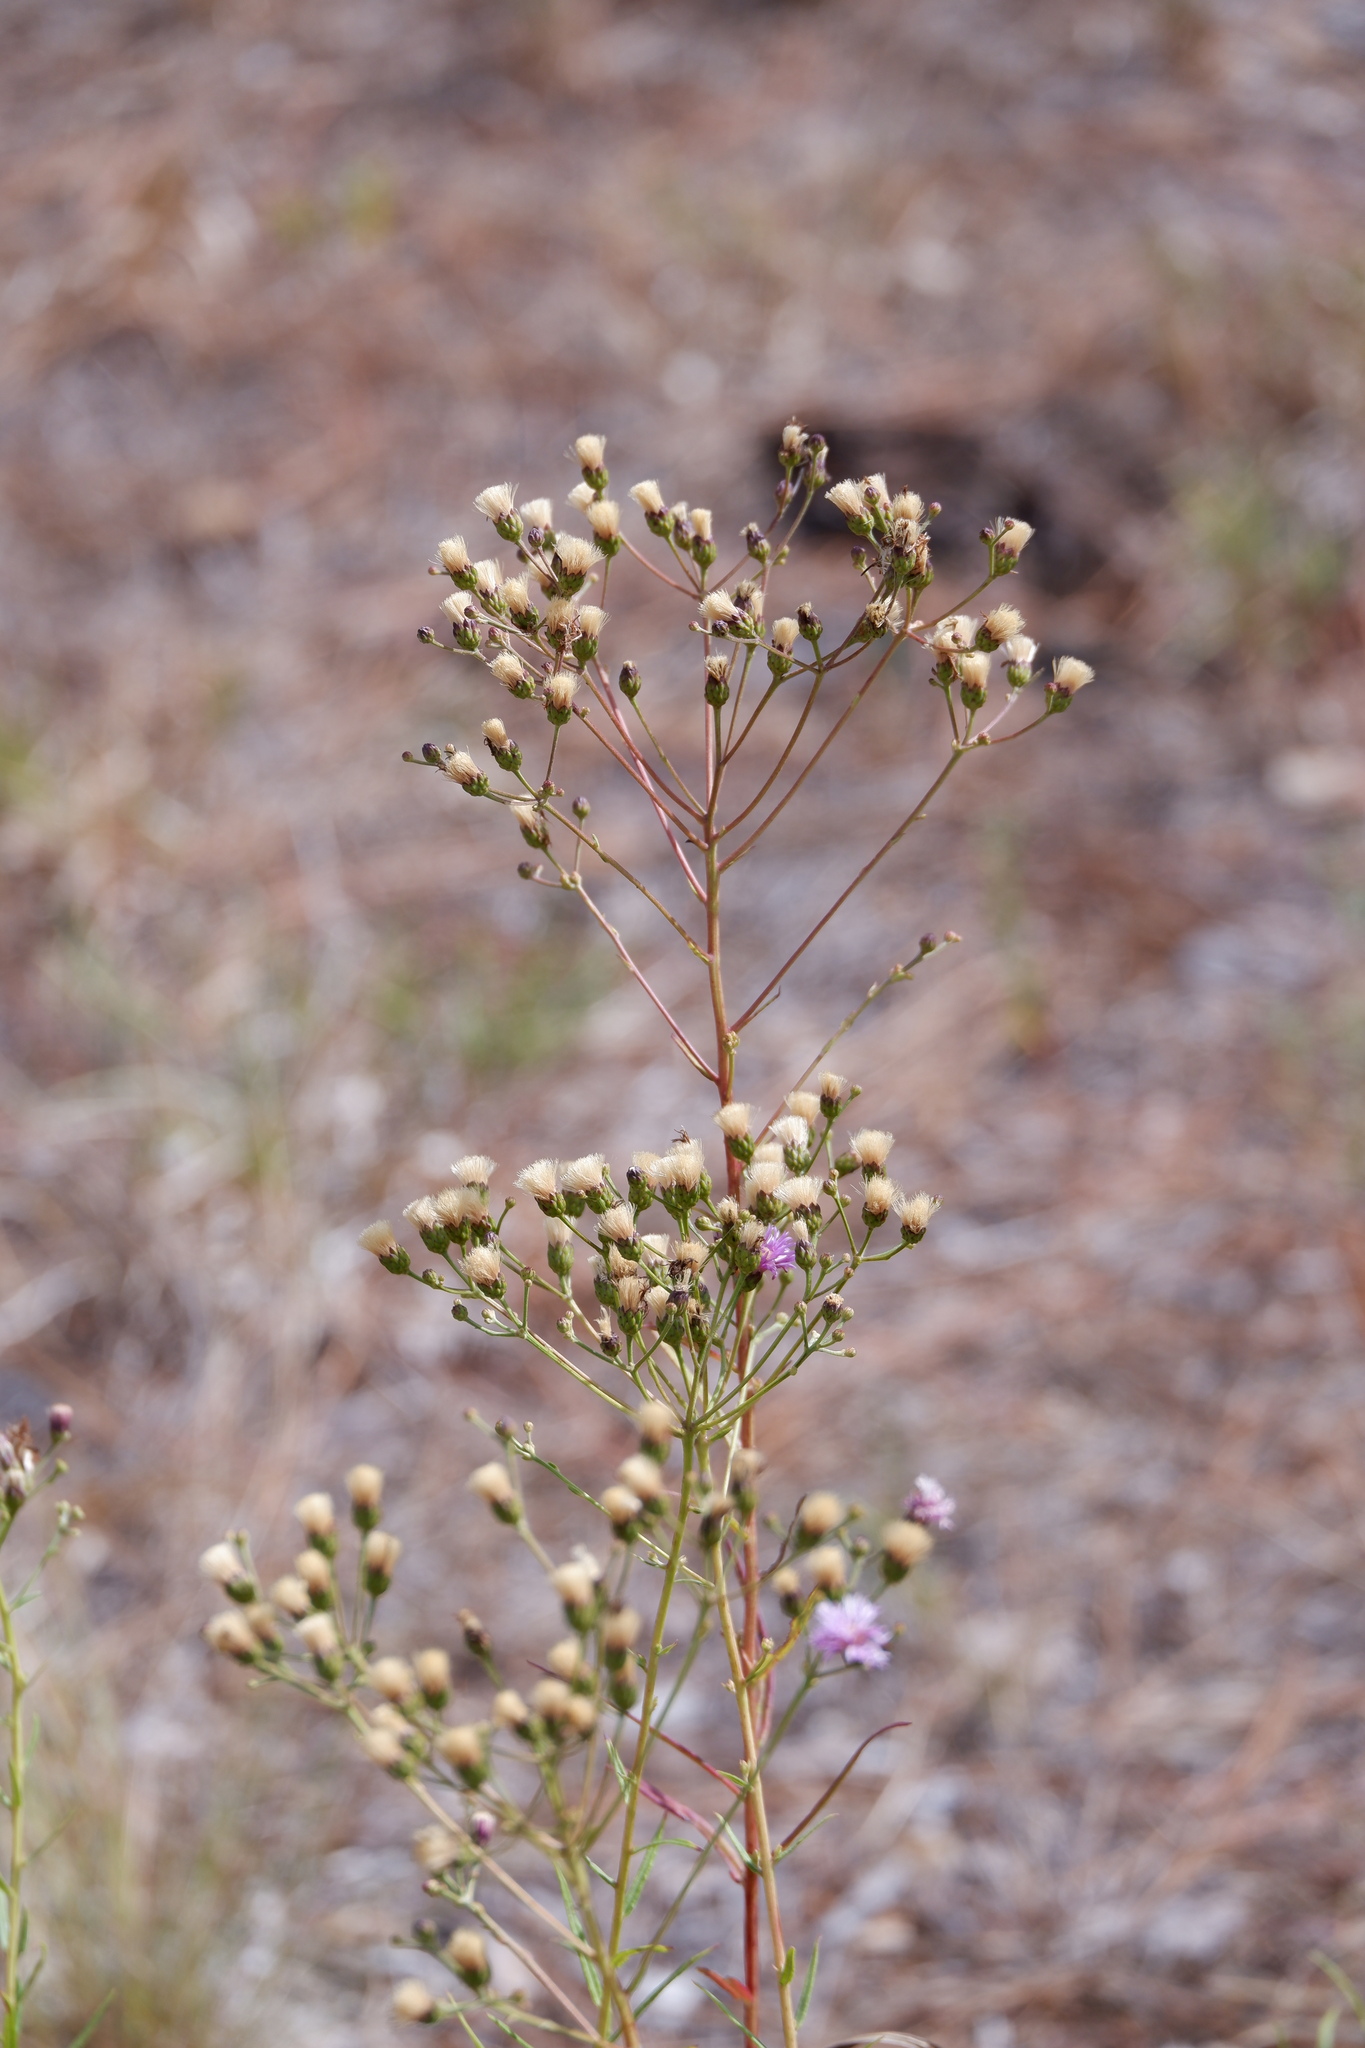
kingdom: Plantae
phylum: Tracheophyta
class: Magnoliopsida
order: Asterales
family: Asteraceae
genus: Vernonia
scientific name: Vernonia texana
